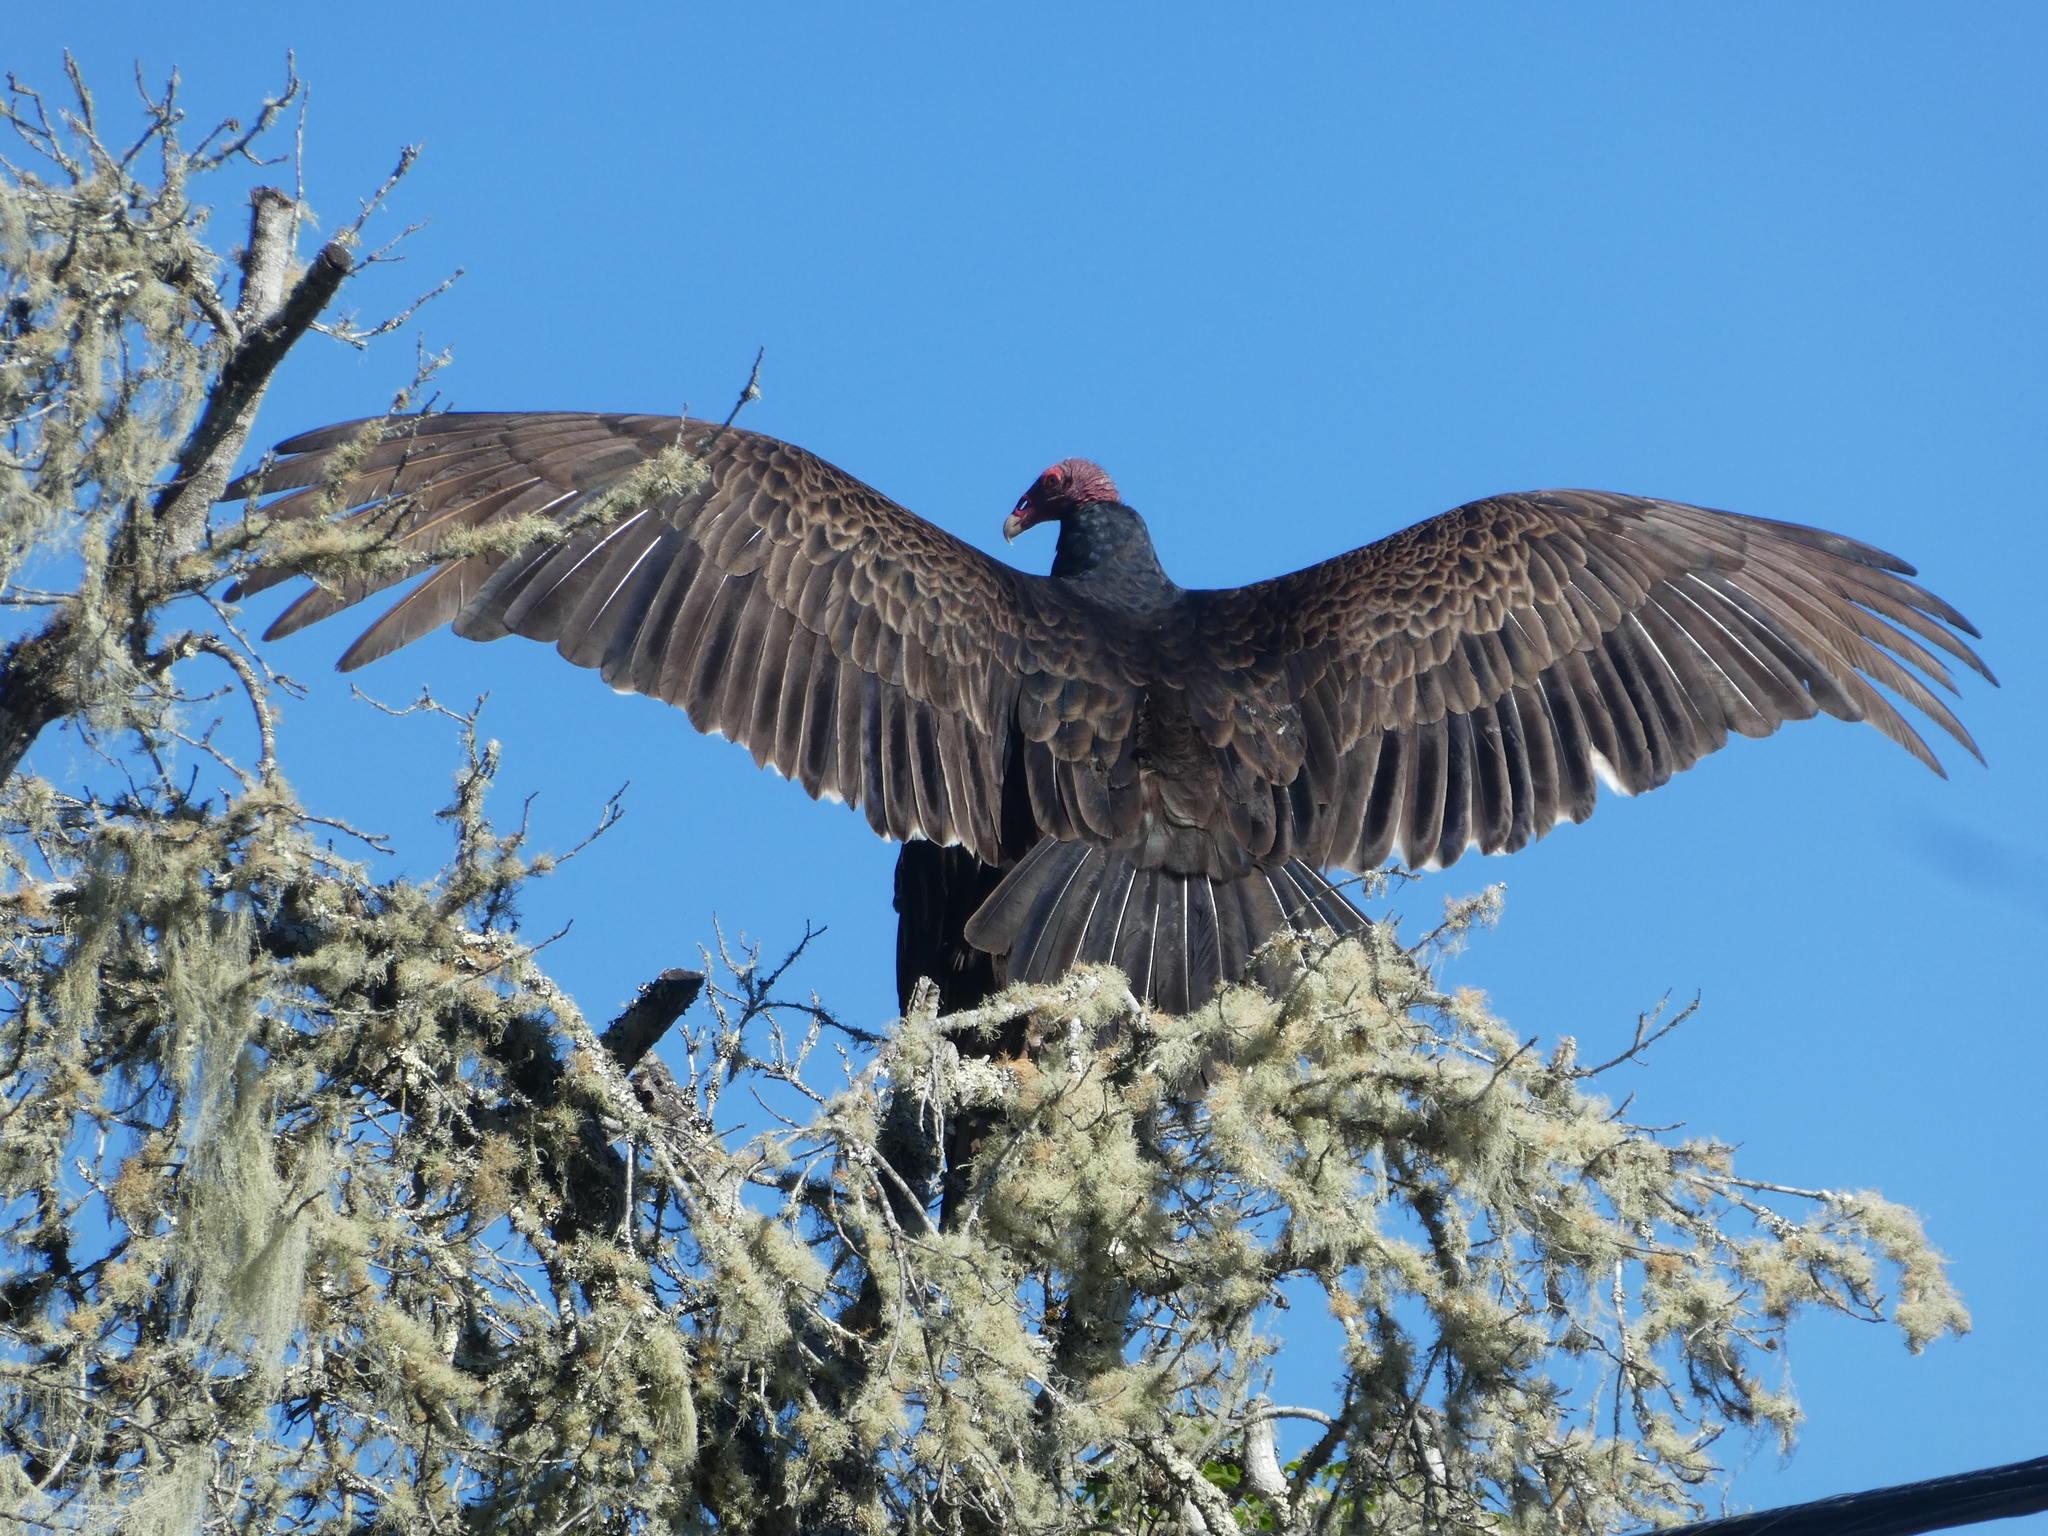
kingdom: Animalia
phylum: Chordata
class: Aves
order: Accipitriformes
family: Cathartidae
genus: Cathartes
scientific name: Cathartes aura
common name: Turkey vulture
